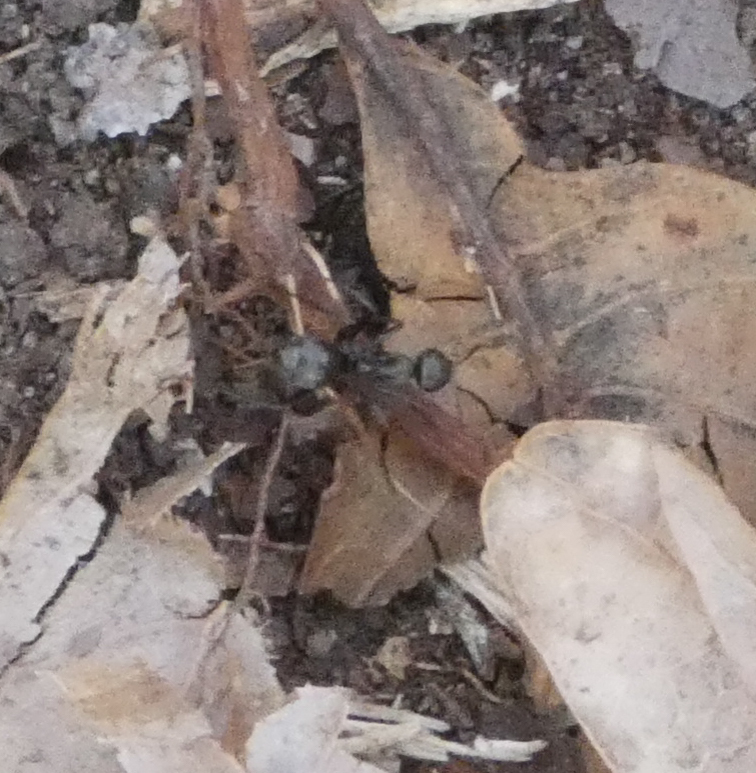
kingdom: Animalia
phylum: Arthropoda
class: Insecta
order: Hymenoptera
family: Formicidae
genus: Formica
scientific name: Formica
